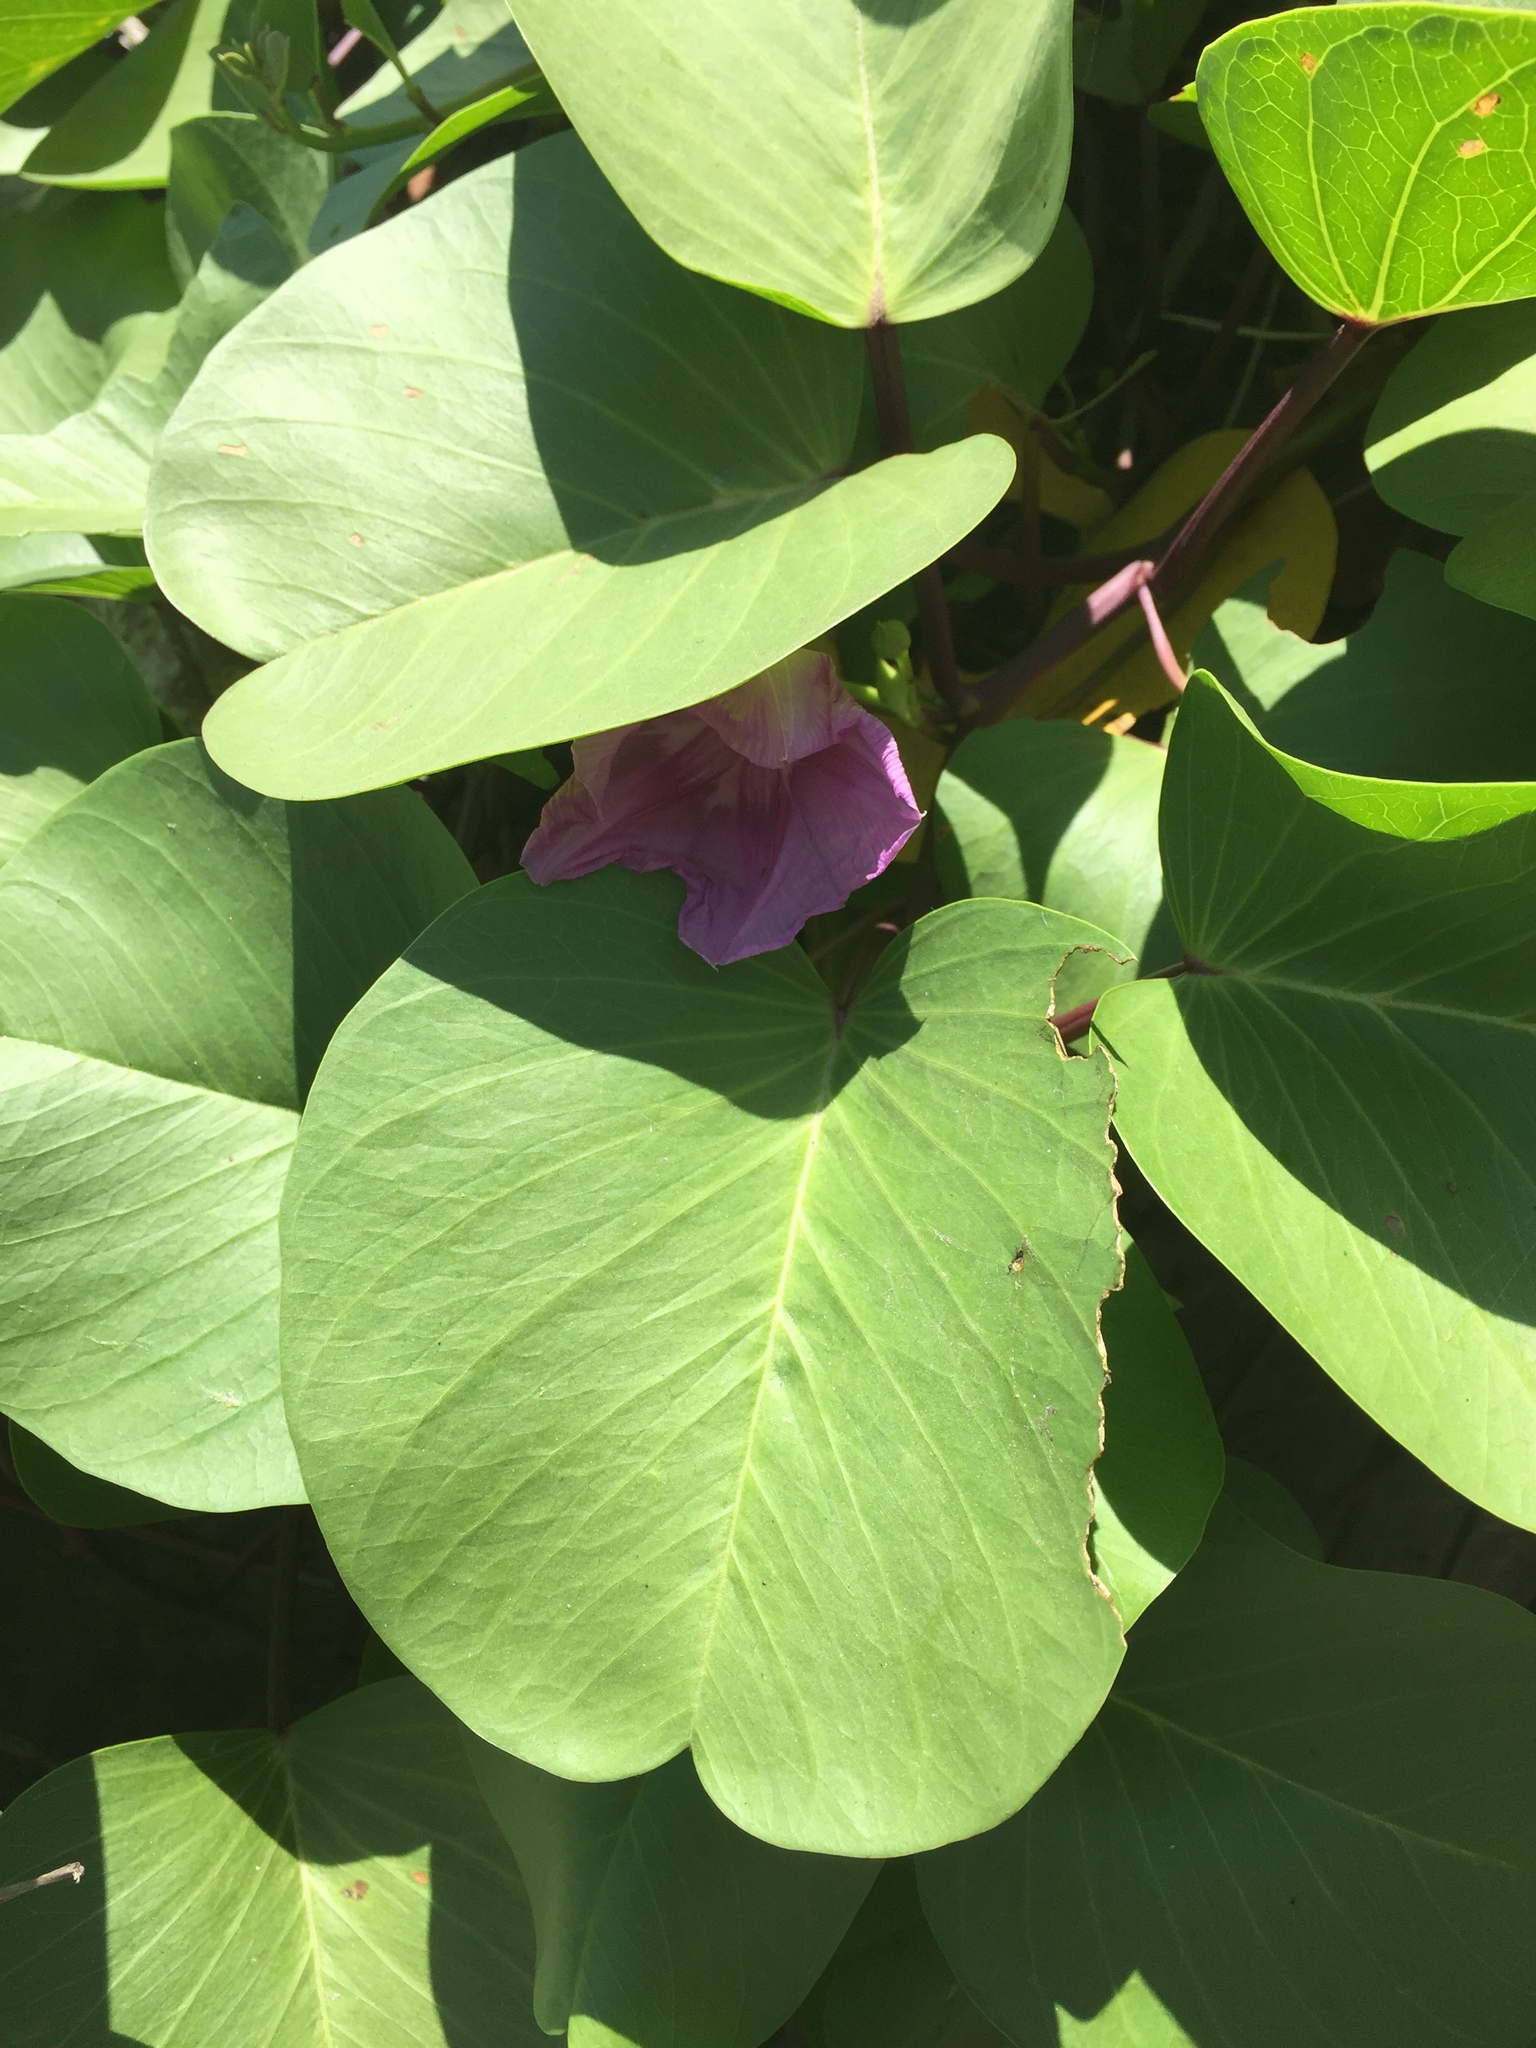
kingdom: Plantae
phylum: Tracheophyta
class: Magnoliopsida
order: Solanales
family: Convolvulaceae
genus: Ipomoea
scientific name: Ipomoea pes-caprae
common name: Beach morning glory
